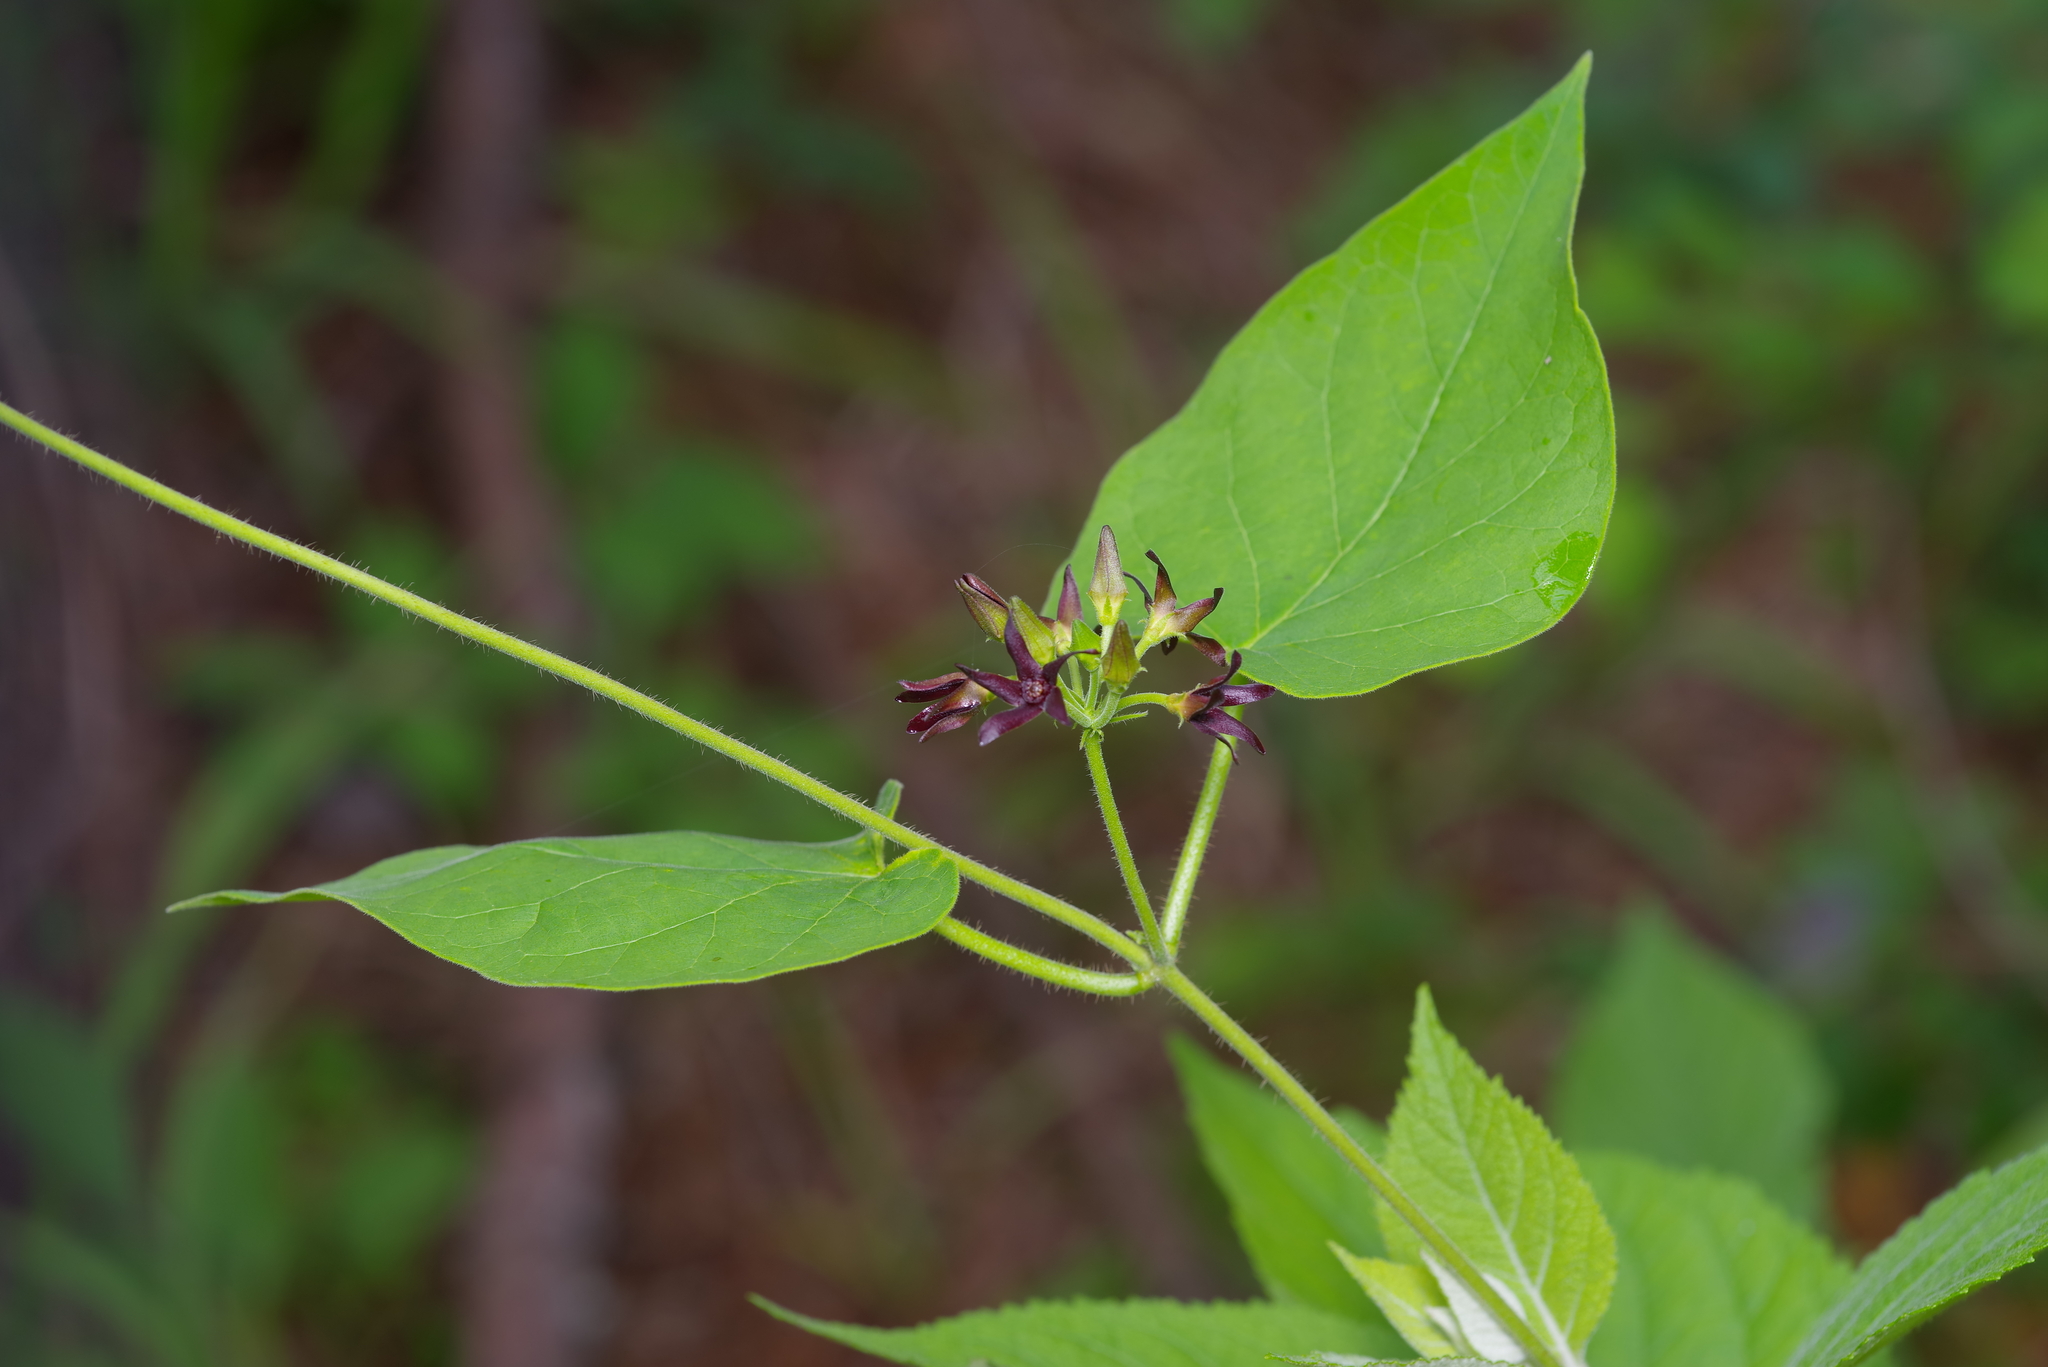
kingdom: Plantae
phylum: Tracheophyta
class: Magnoliopsida
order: Gentianales
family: Apocynaceae
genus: Matelea
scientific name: Matelea hirtelliflora
